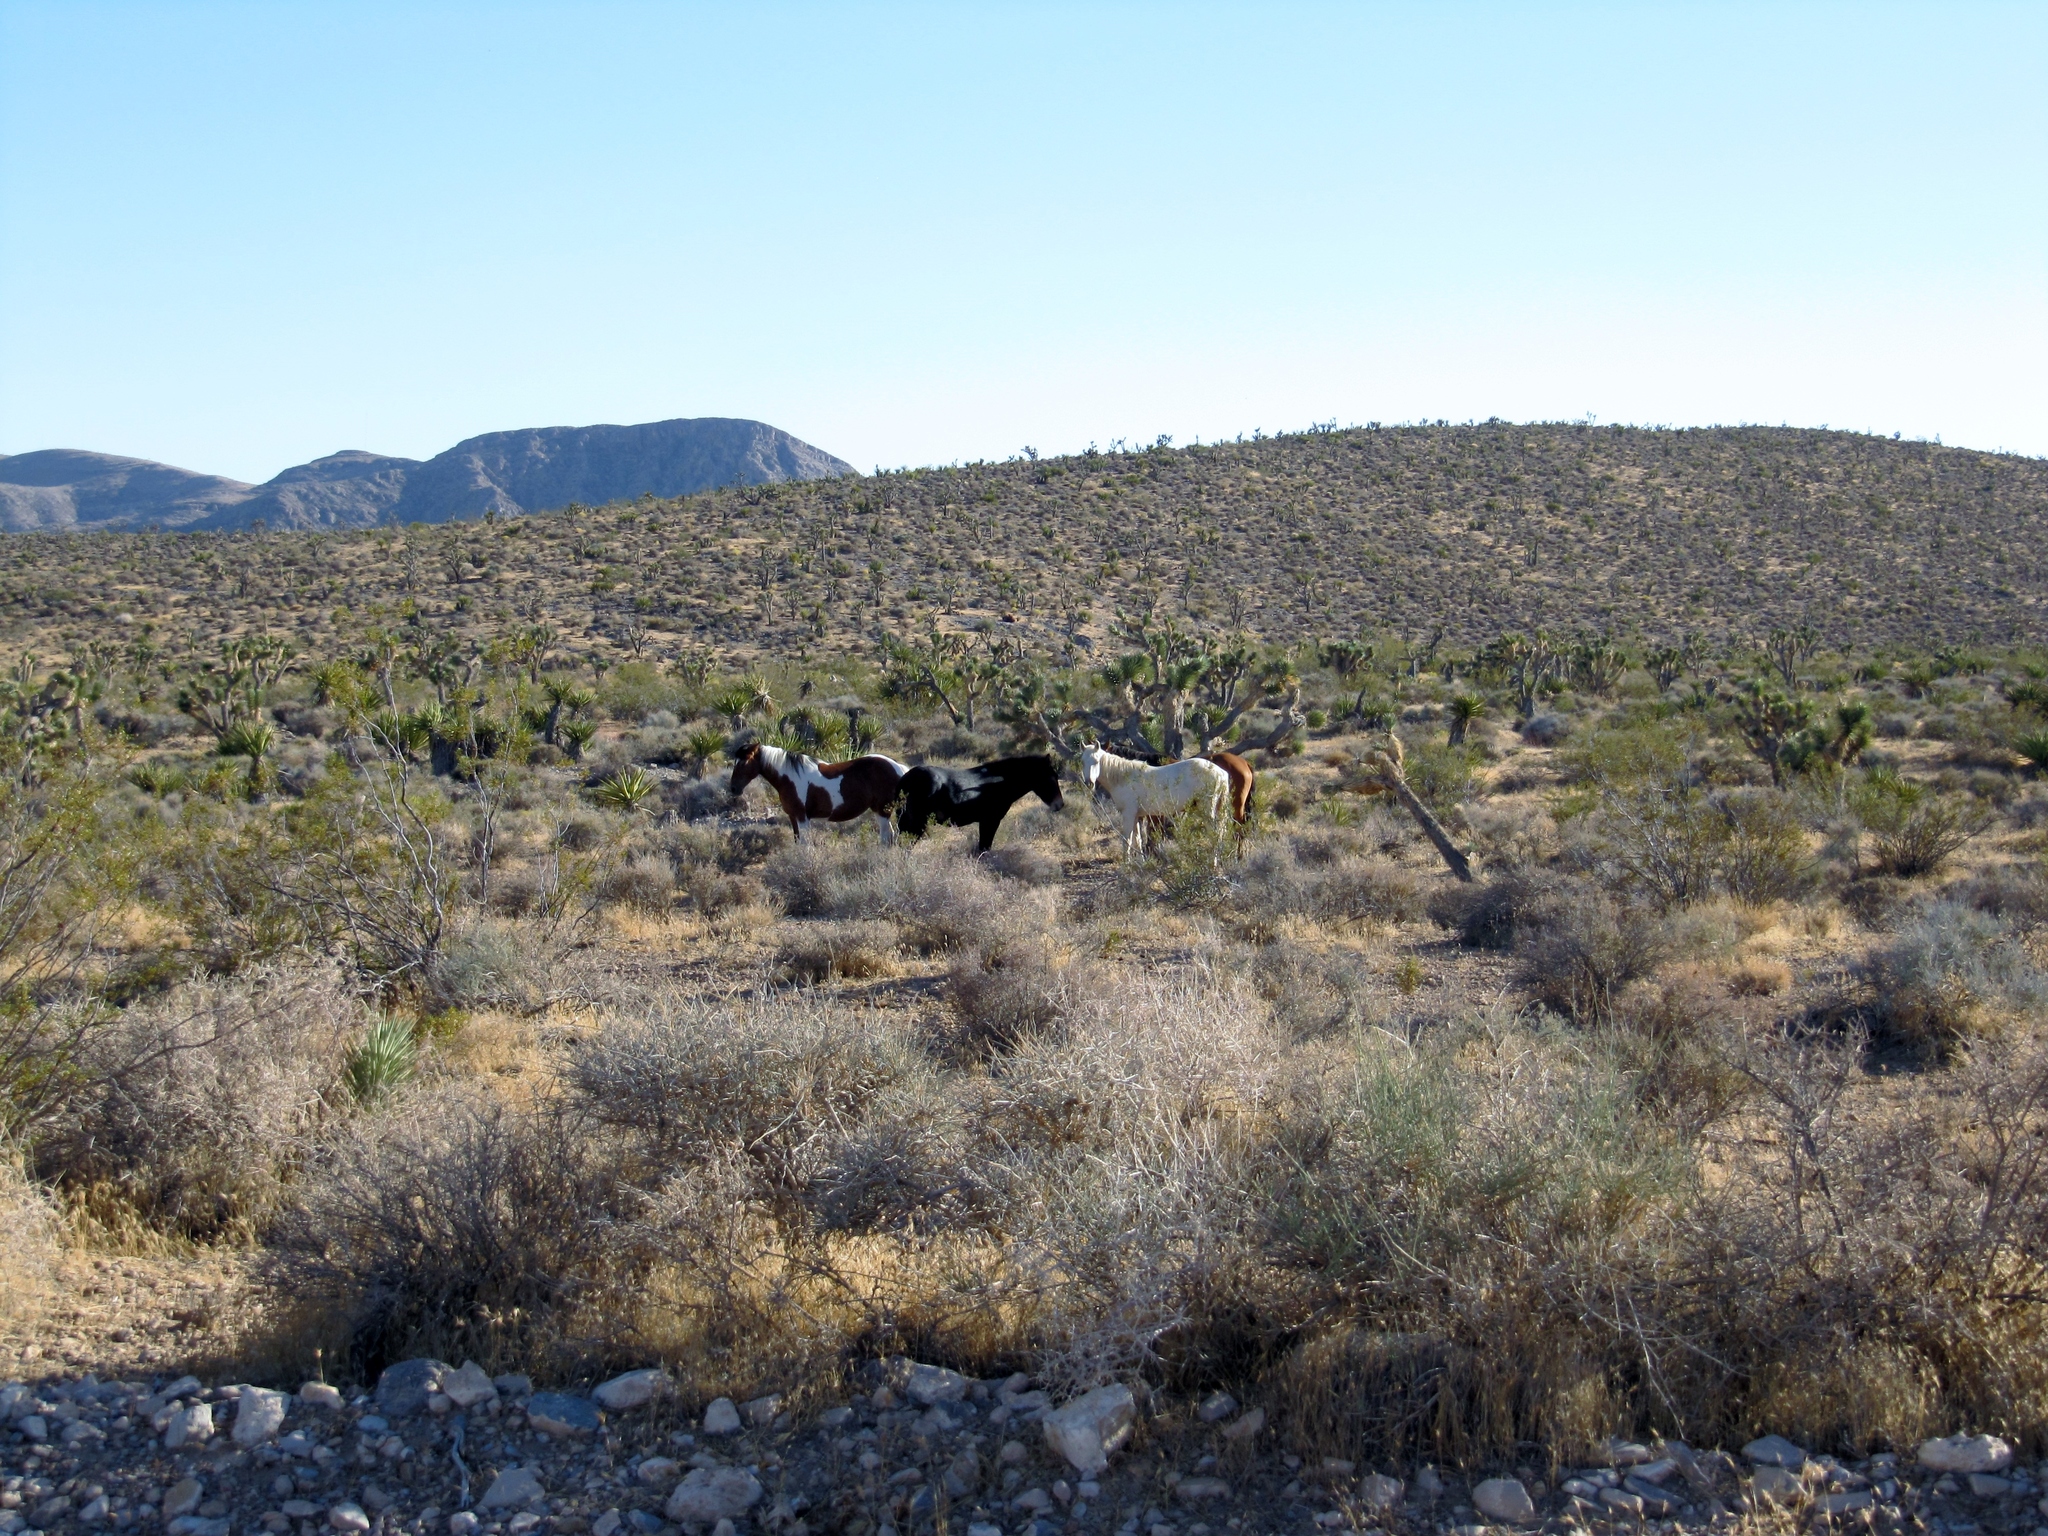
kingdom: Animalia
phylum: Chordata
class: Mammalia
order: Perissodactyla
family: Equidae
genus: Equus
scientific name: Equus caballus
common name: Horse
